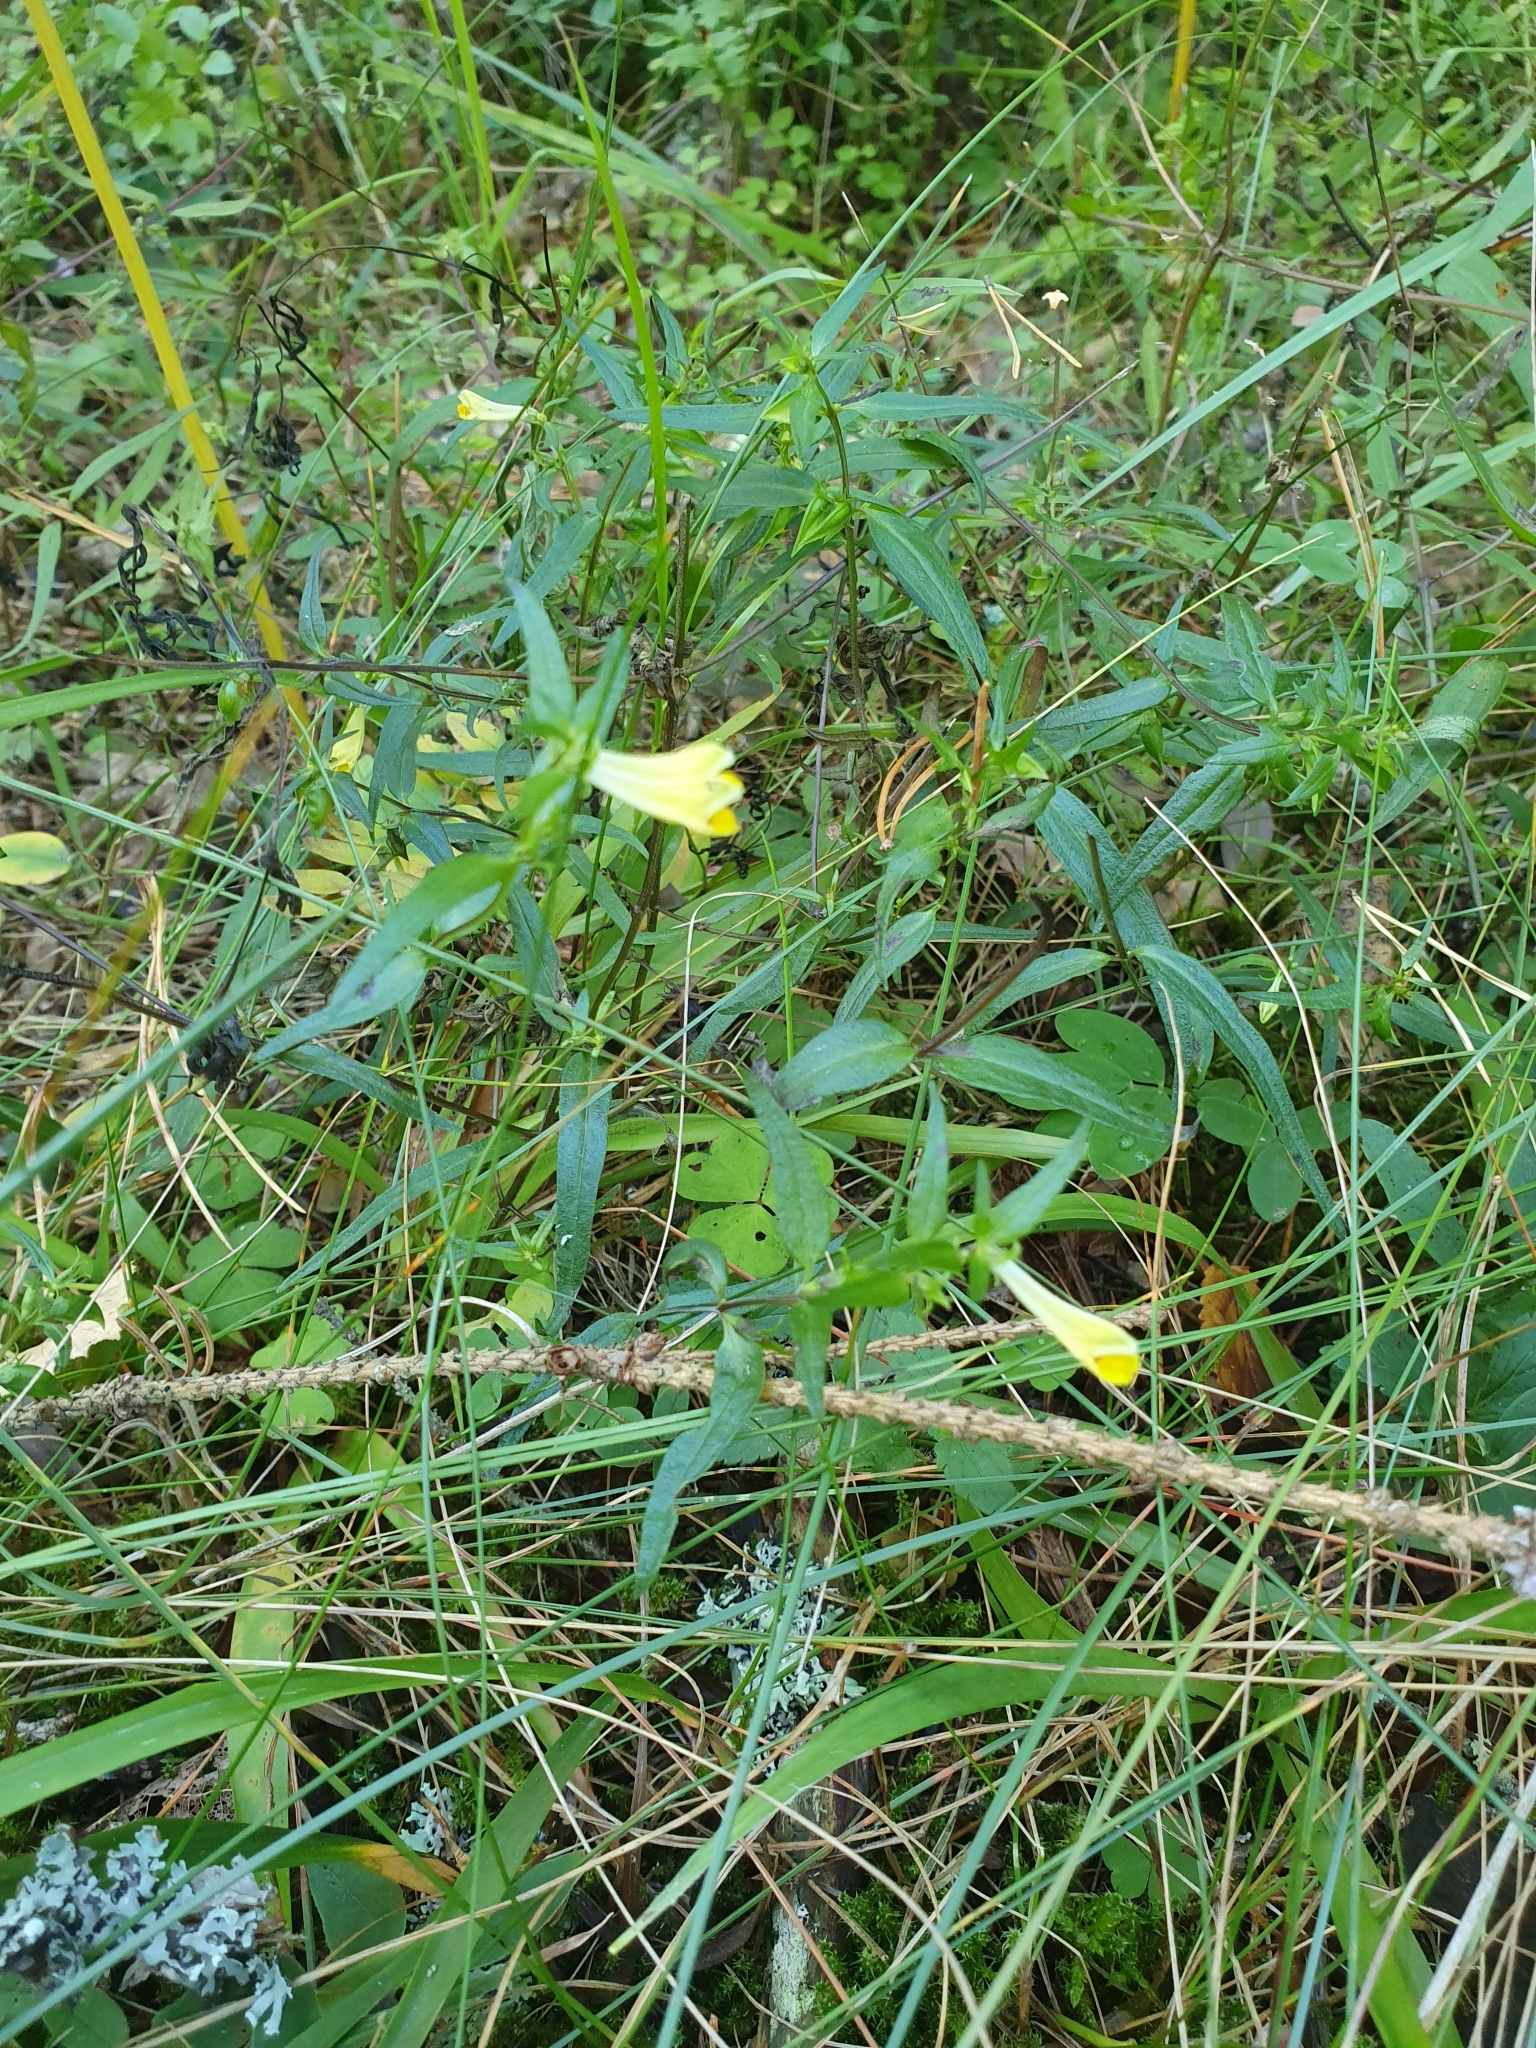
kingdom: Plantae
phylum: Tracheophyta
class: Magnoliopsida
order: Lamiales
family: Orobanchaceae
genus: Melampyrum
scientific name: Melampyrum pratense
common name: Common cow-wheat
